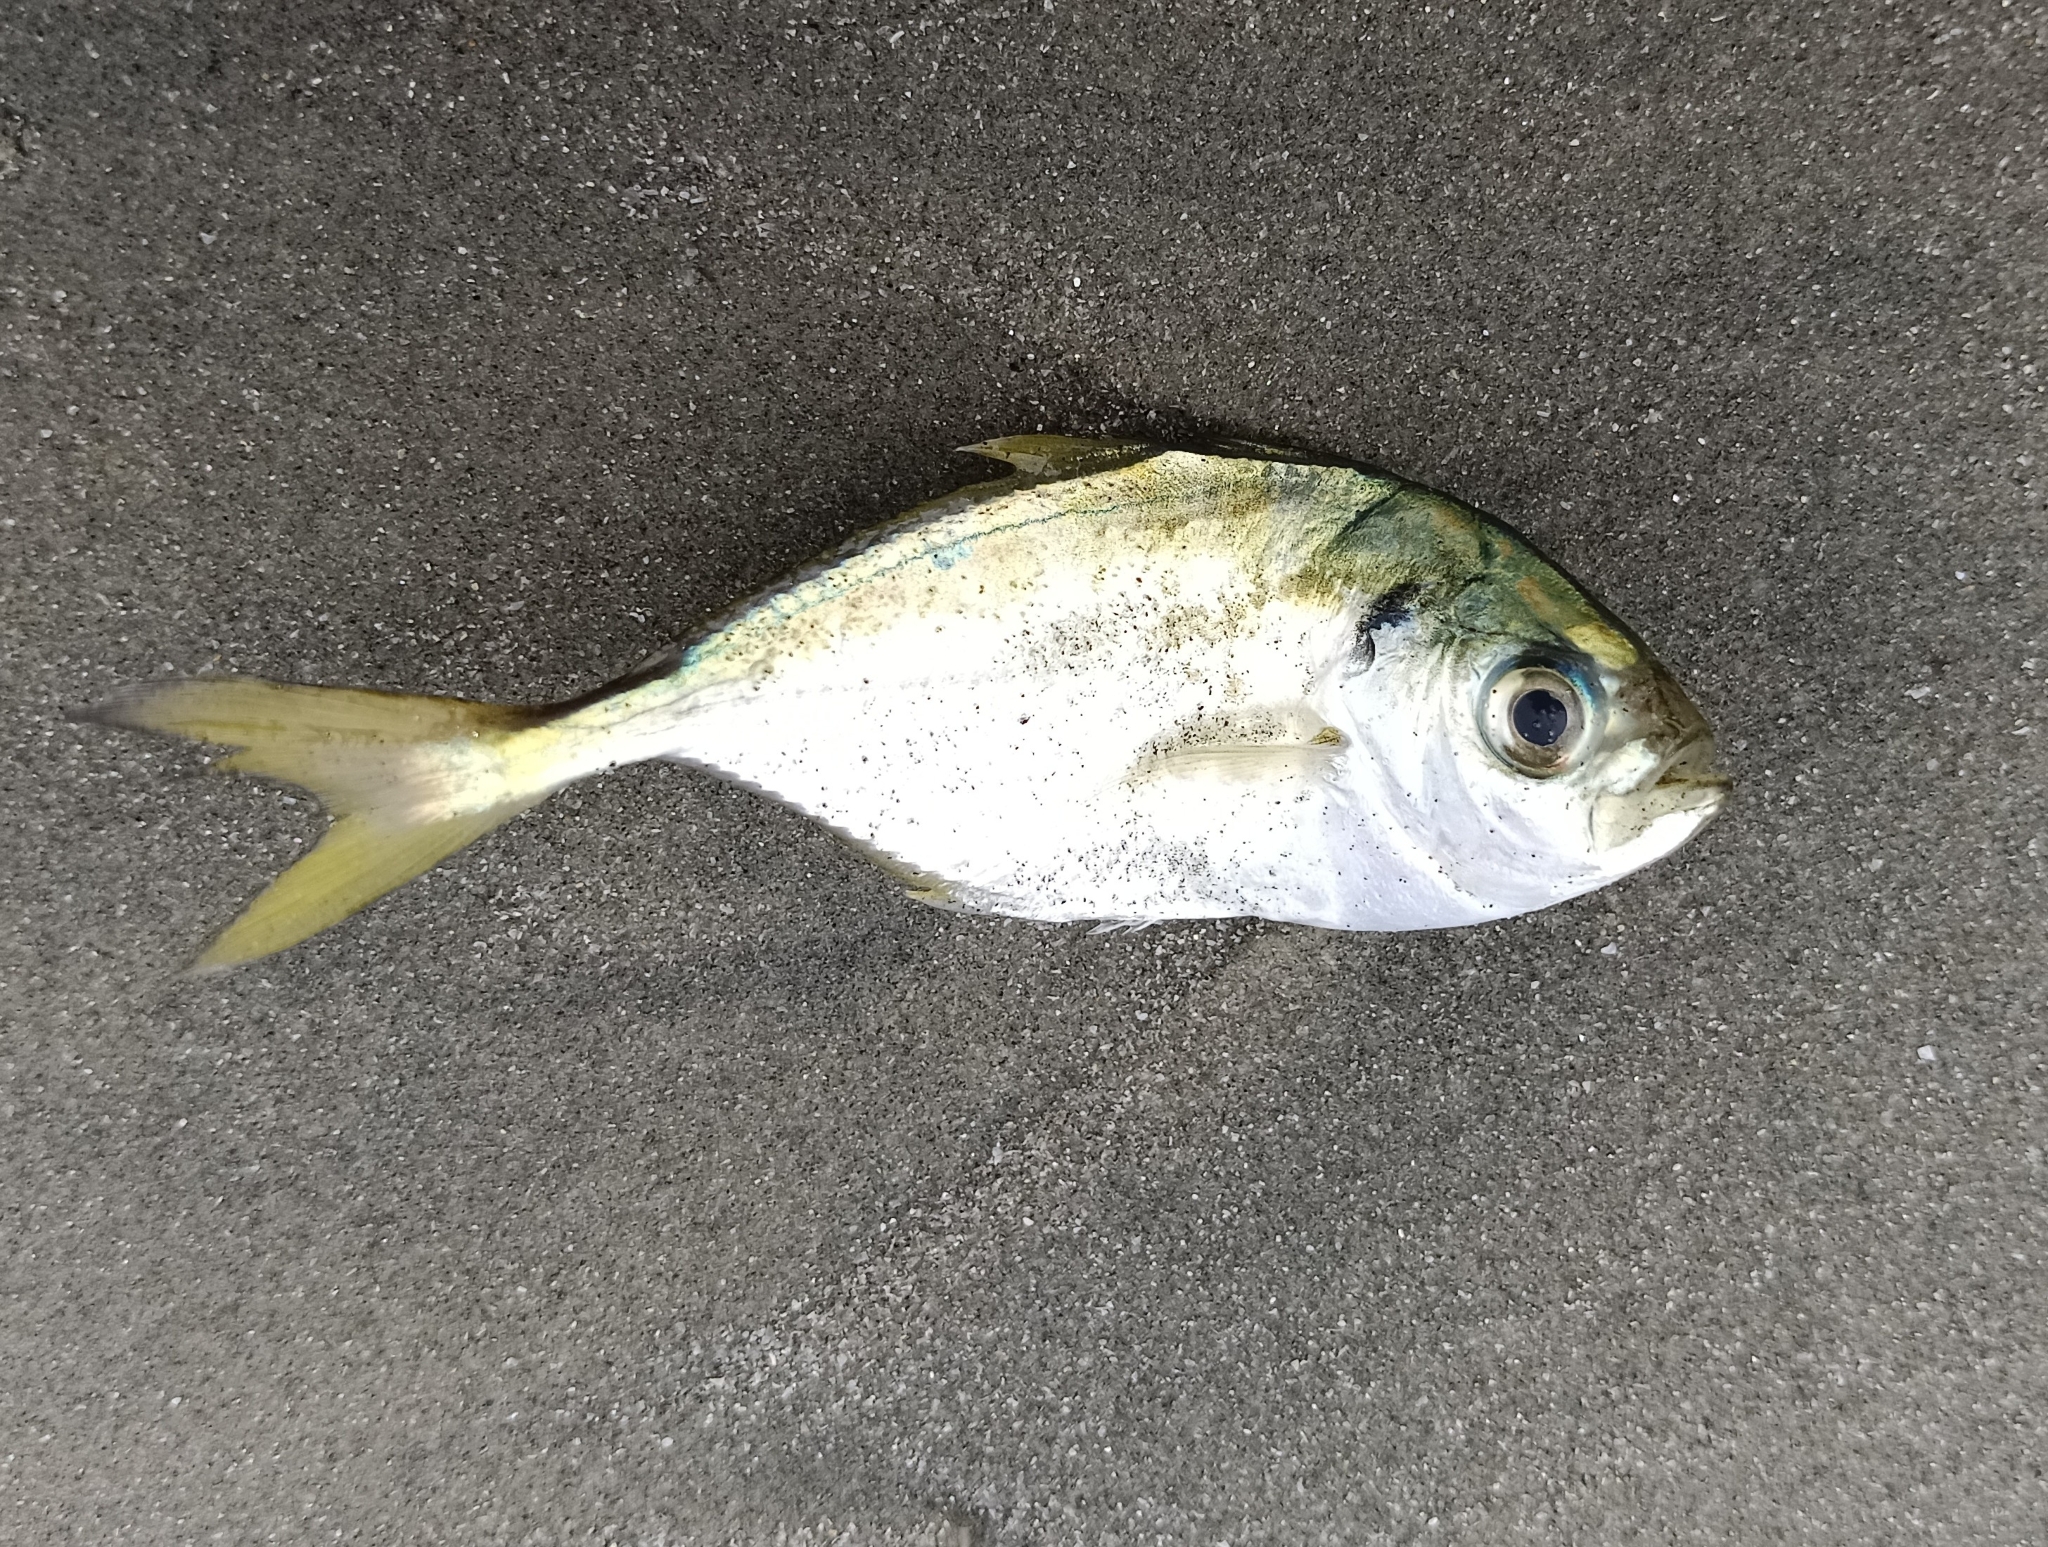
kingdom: Animalia
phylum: Chordata
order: Perciformes
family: Carangidae
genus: Alepes
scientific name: Alepes kleinii
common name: Banded scad
